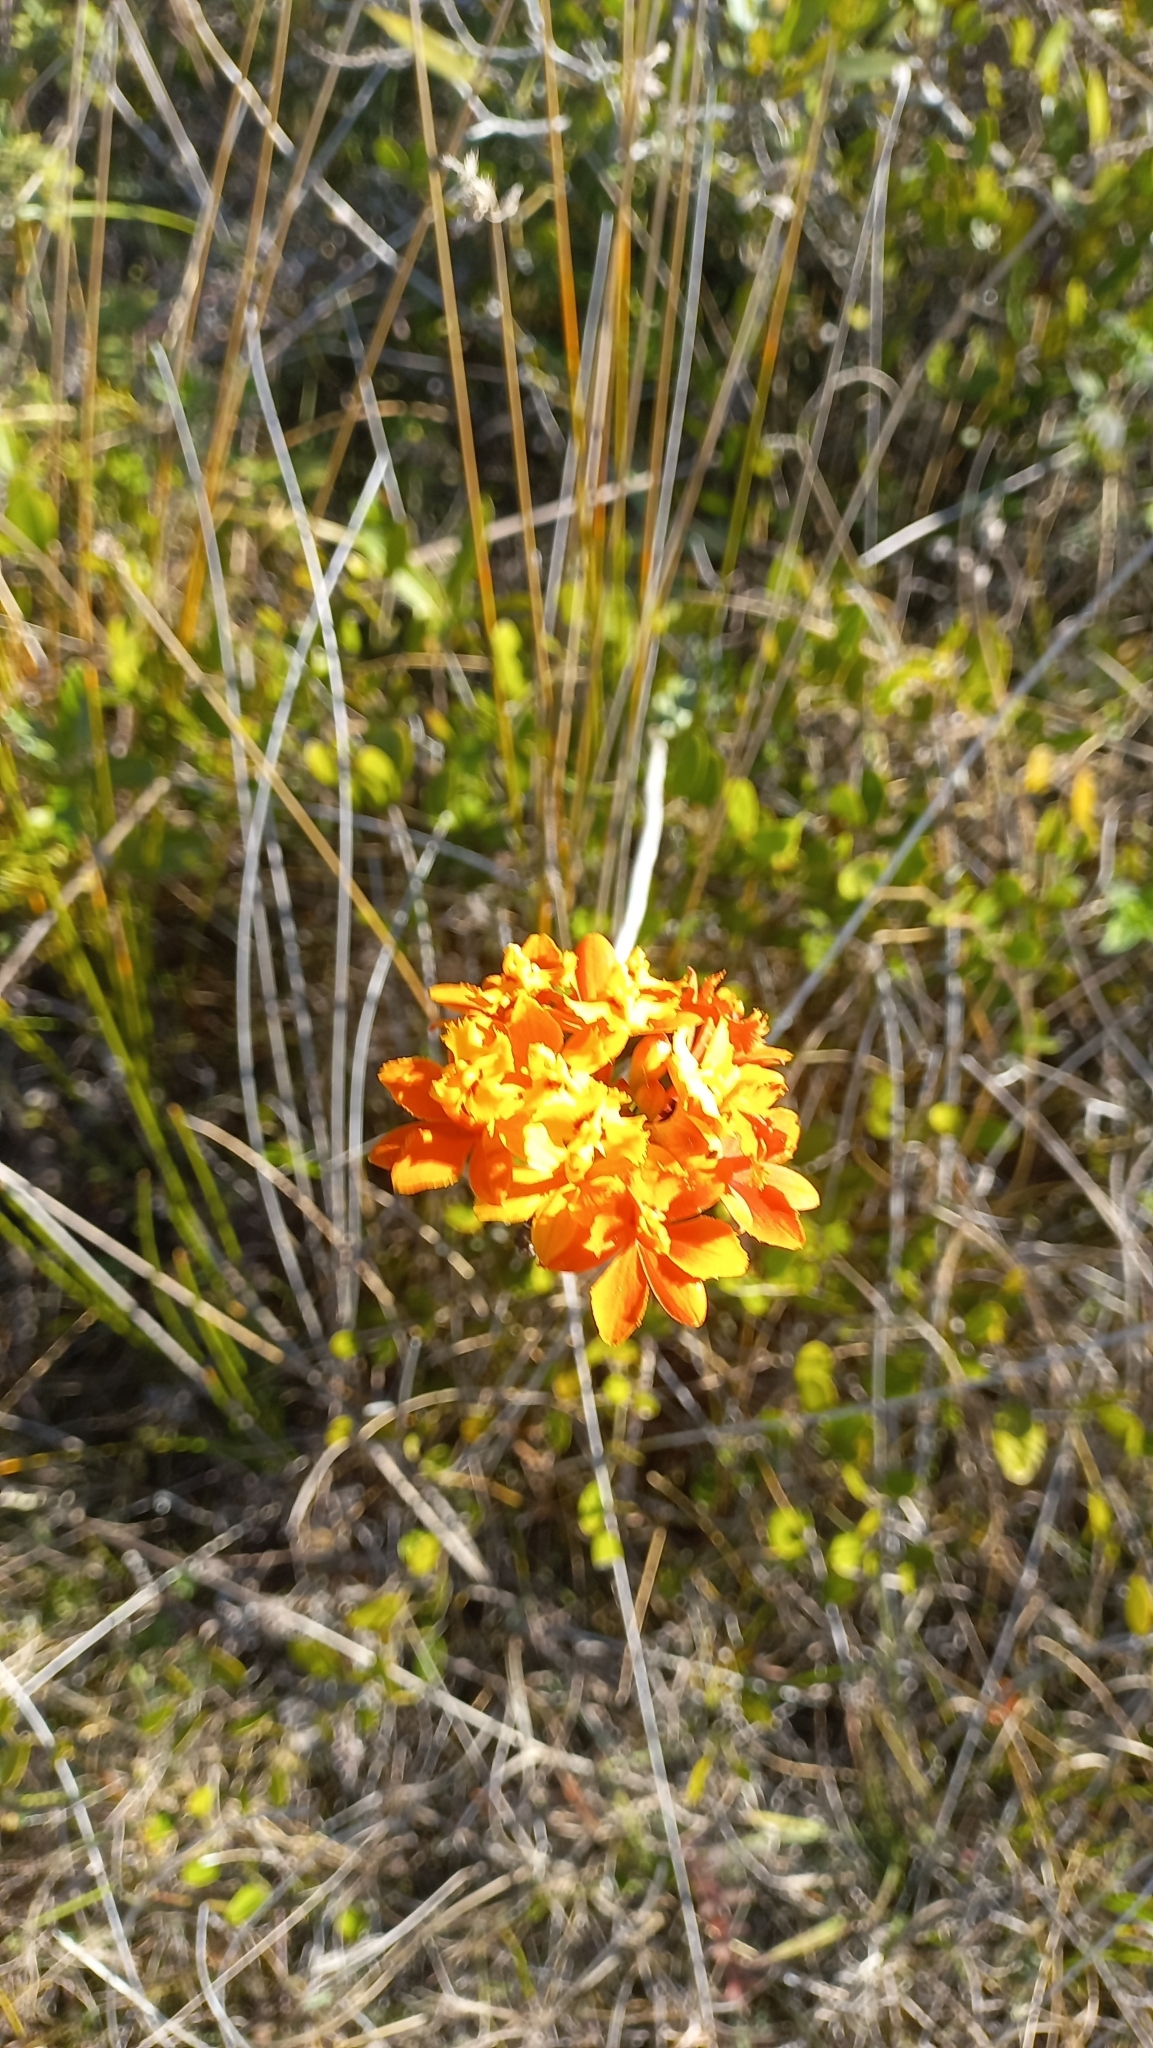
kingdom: Plantae
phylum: Tracheophyta
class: Liliopsida
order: Asparagales
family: Orchidaceae
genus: Epidendrum
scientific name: Epidendrum fulgens
